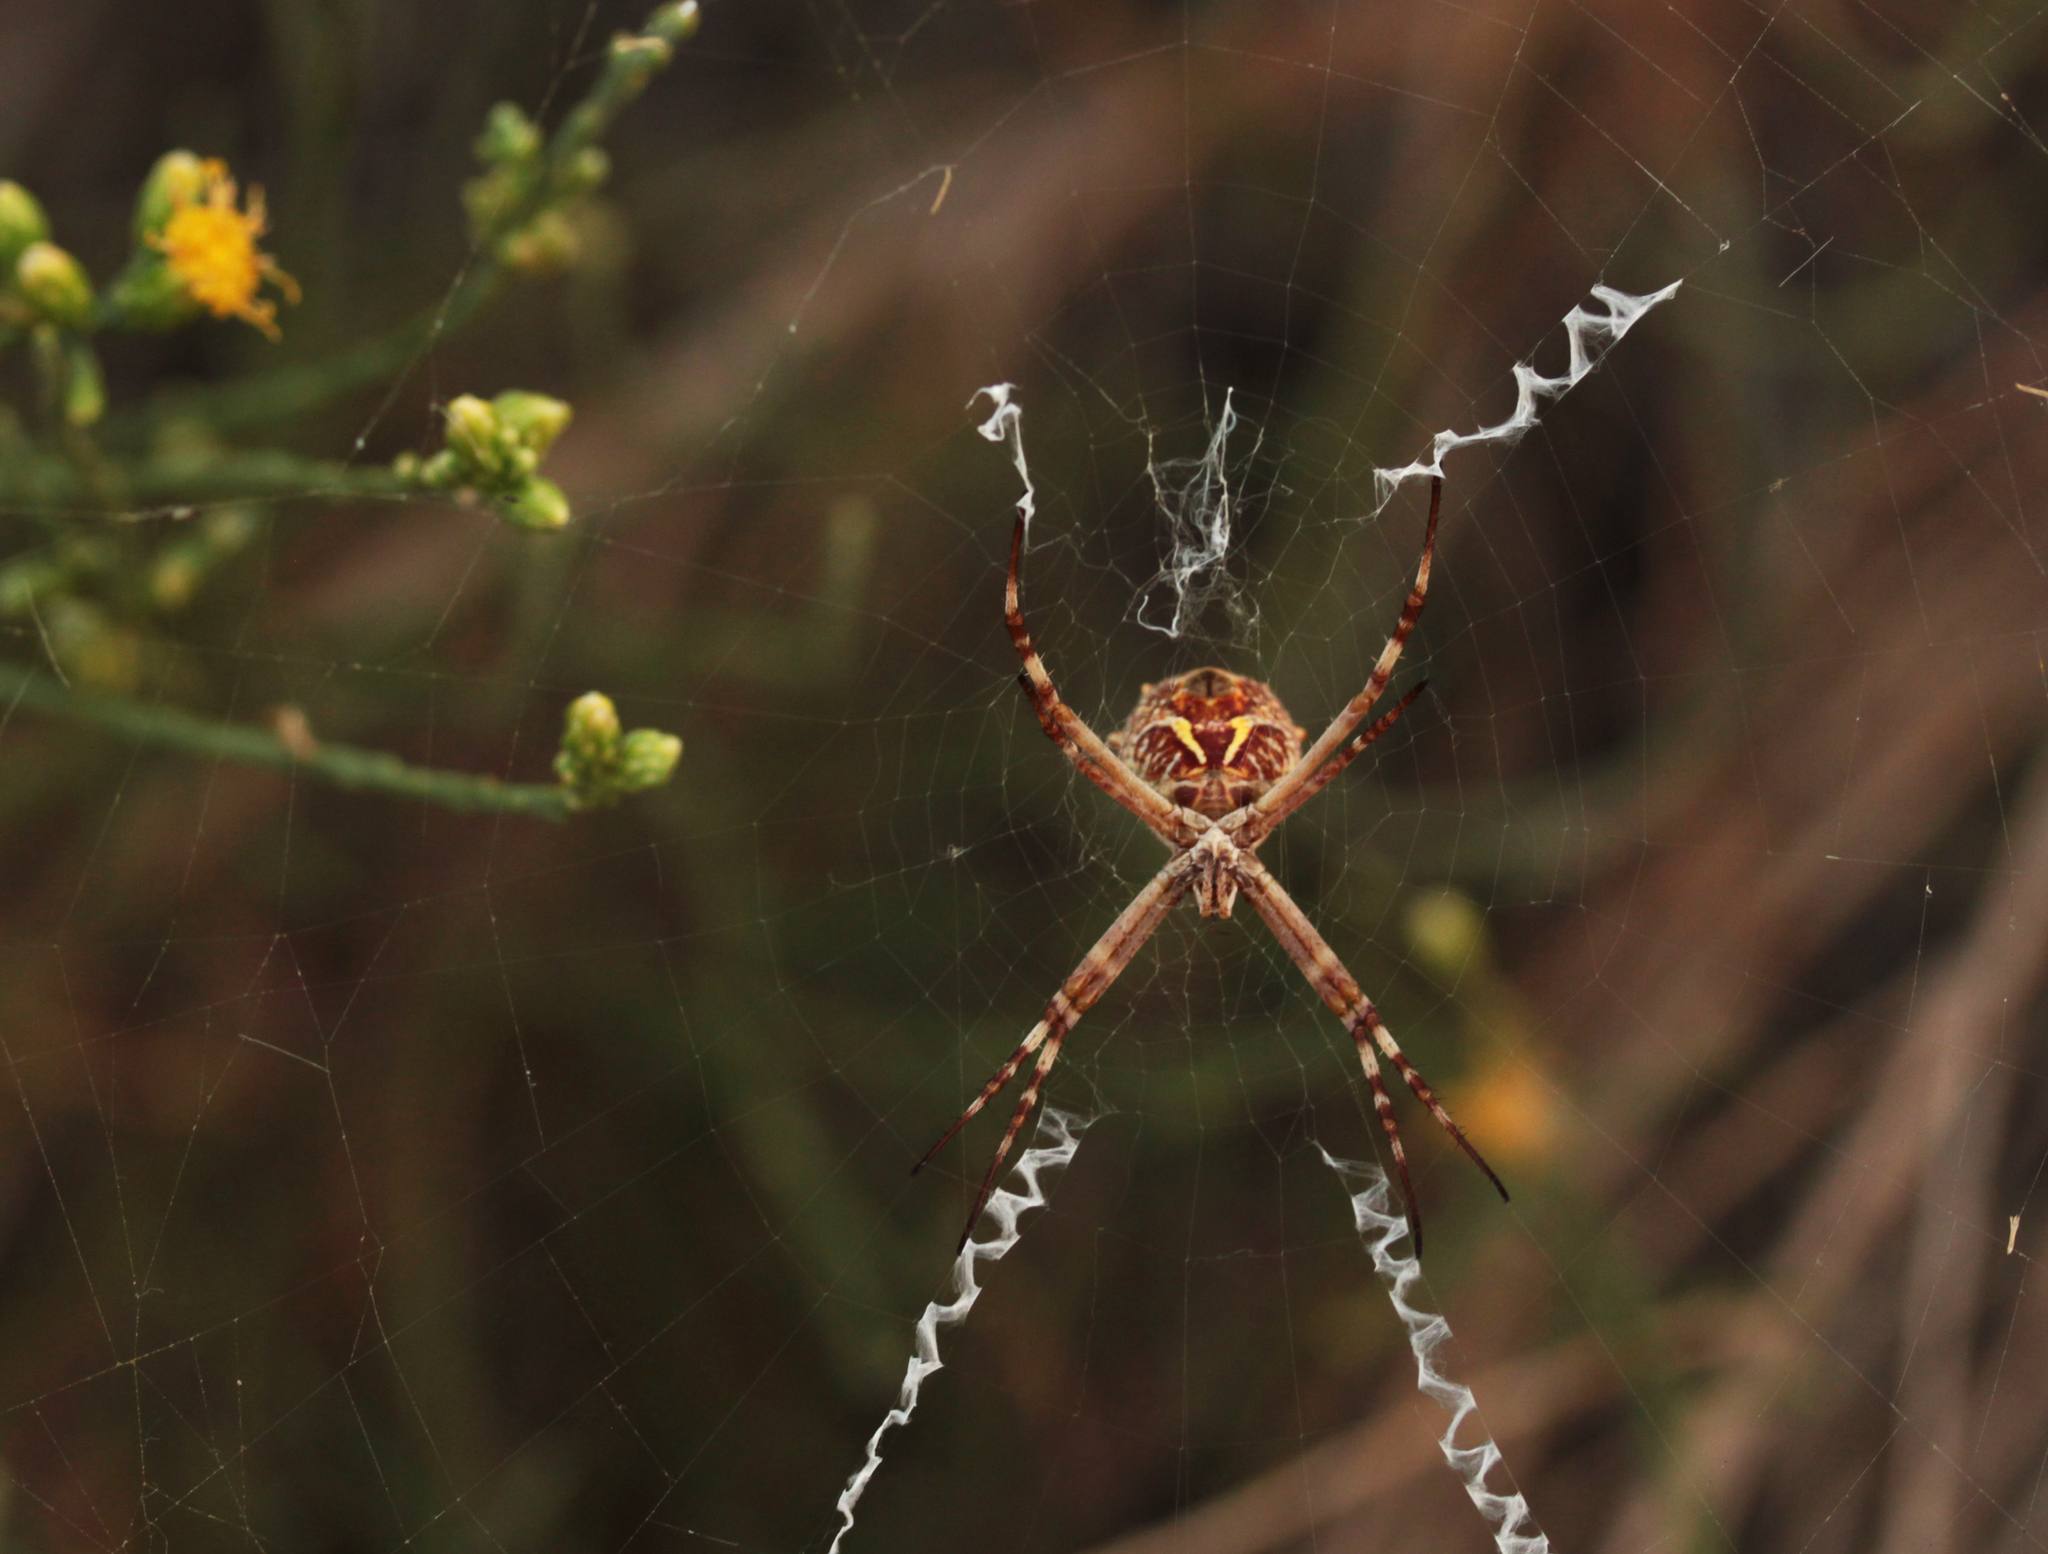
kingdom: Animalia
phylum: Arthropoda
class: Arachnida
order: Araneae
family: Araneidae
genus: Argiope
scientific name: Argiope argentata
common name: Orb weavers
